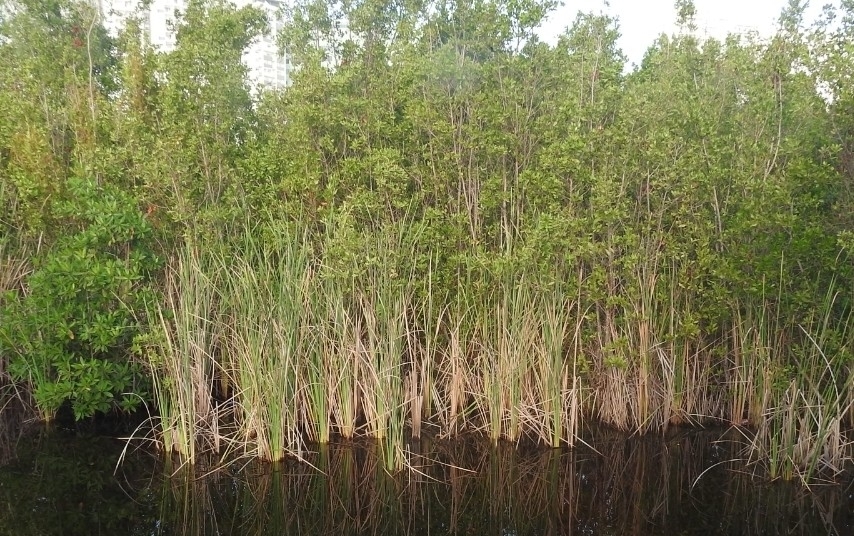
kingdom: Plantae
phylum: Tracheophyta
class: Liliopsida
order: Poales
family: Typhaceae
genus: Typha
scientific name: Typha domingensis
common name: Southern cattail
